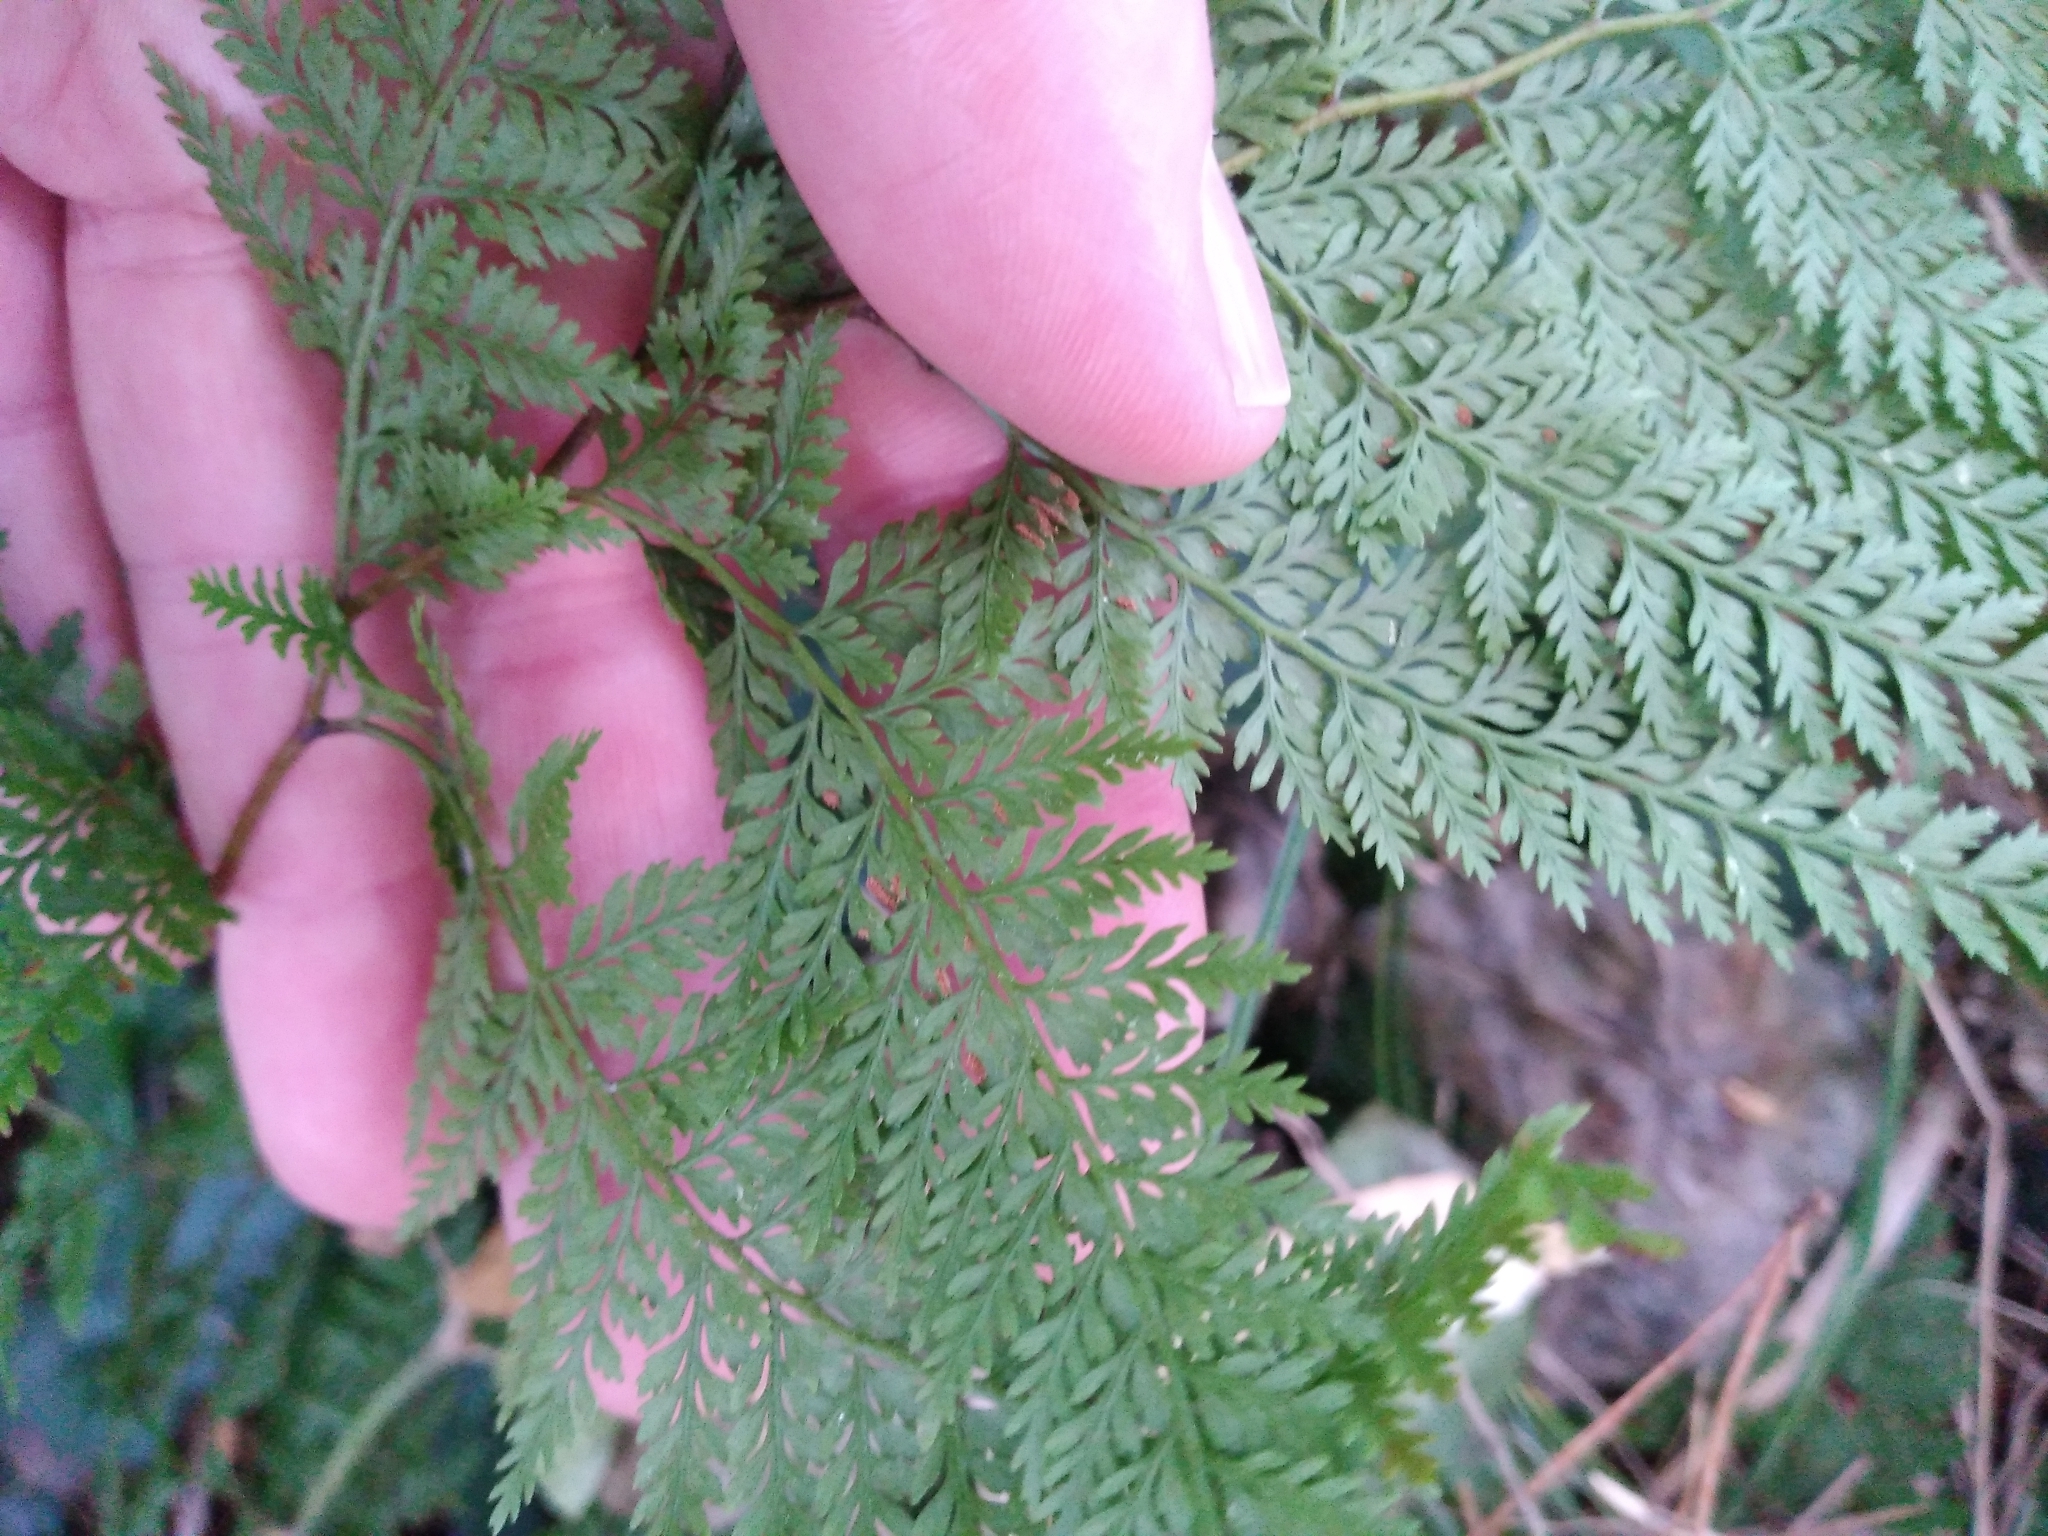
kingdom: Plantae
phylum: Tracheophyta
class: Polypodiopsida
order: Polypodiales
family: Dennstaedtiaceae
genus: Paesia
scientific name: Paesia scaberula
